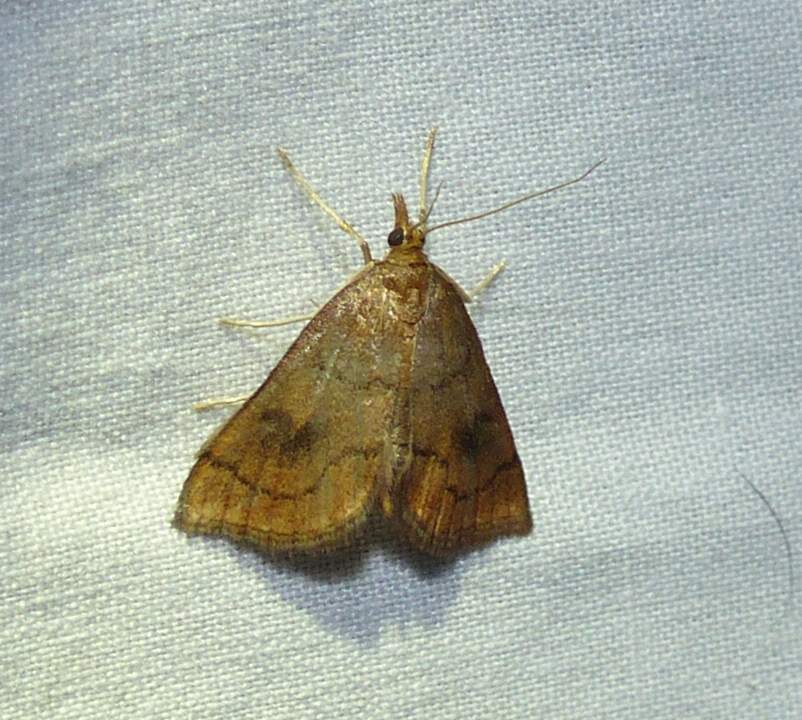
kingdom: Animalia
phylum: Arthropoda
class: Insecta
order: Lepidoptera
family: Crambidae
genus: Fumibotys
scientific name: Fumibotys fumalis
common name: Mint root borer moth
